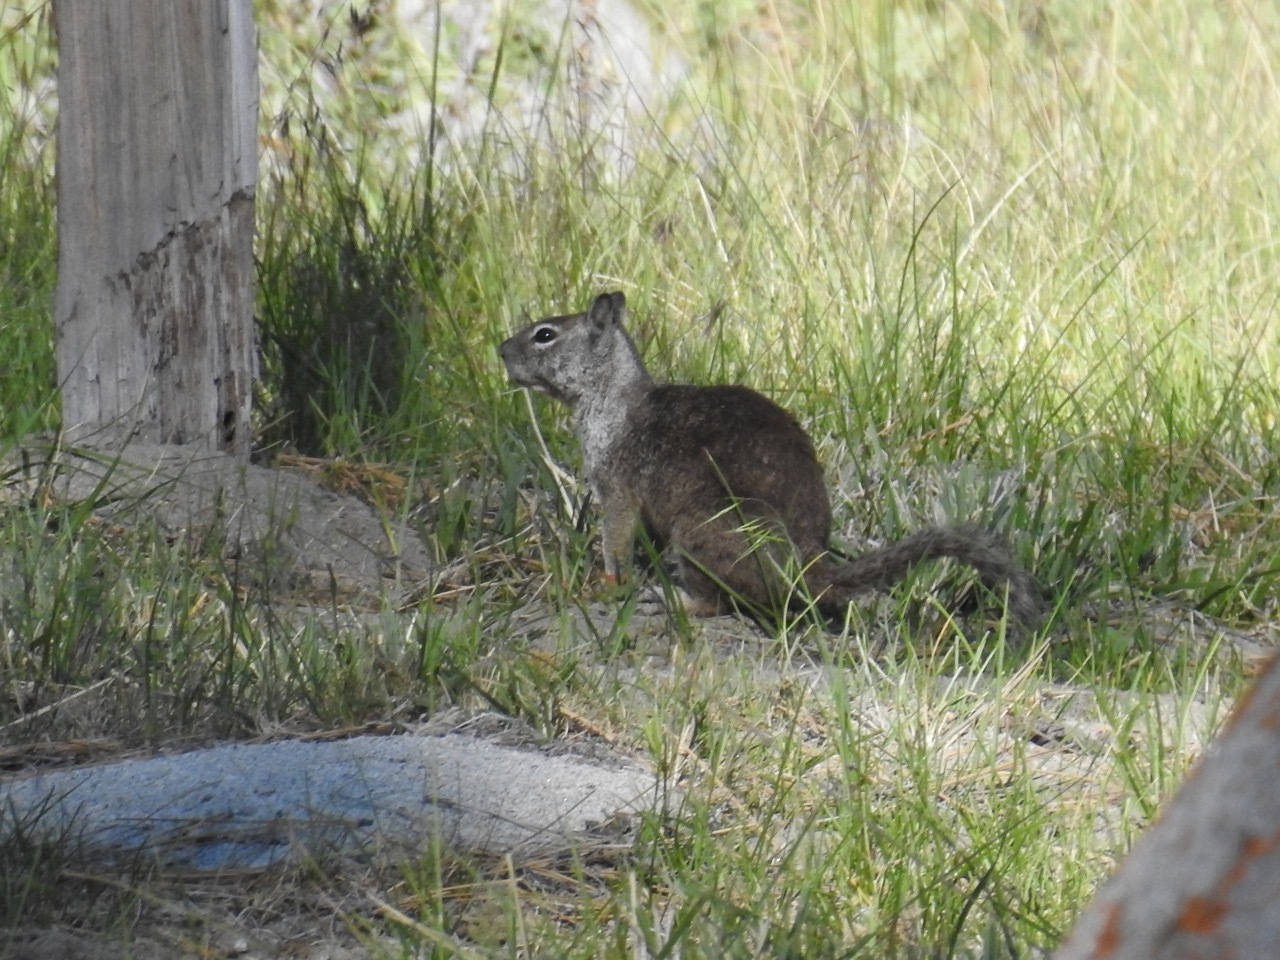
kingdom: Animalia
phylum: Chordata
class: Mammalia
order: Rodentia
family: Sciuridae
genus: Otospermophilus
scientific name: Otospermophilus beecheyi
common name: California ground squirrel
